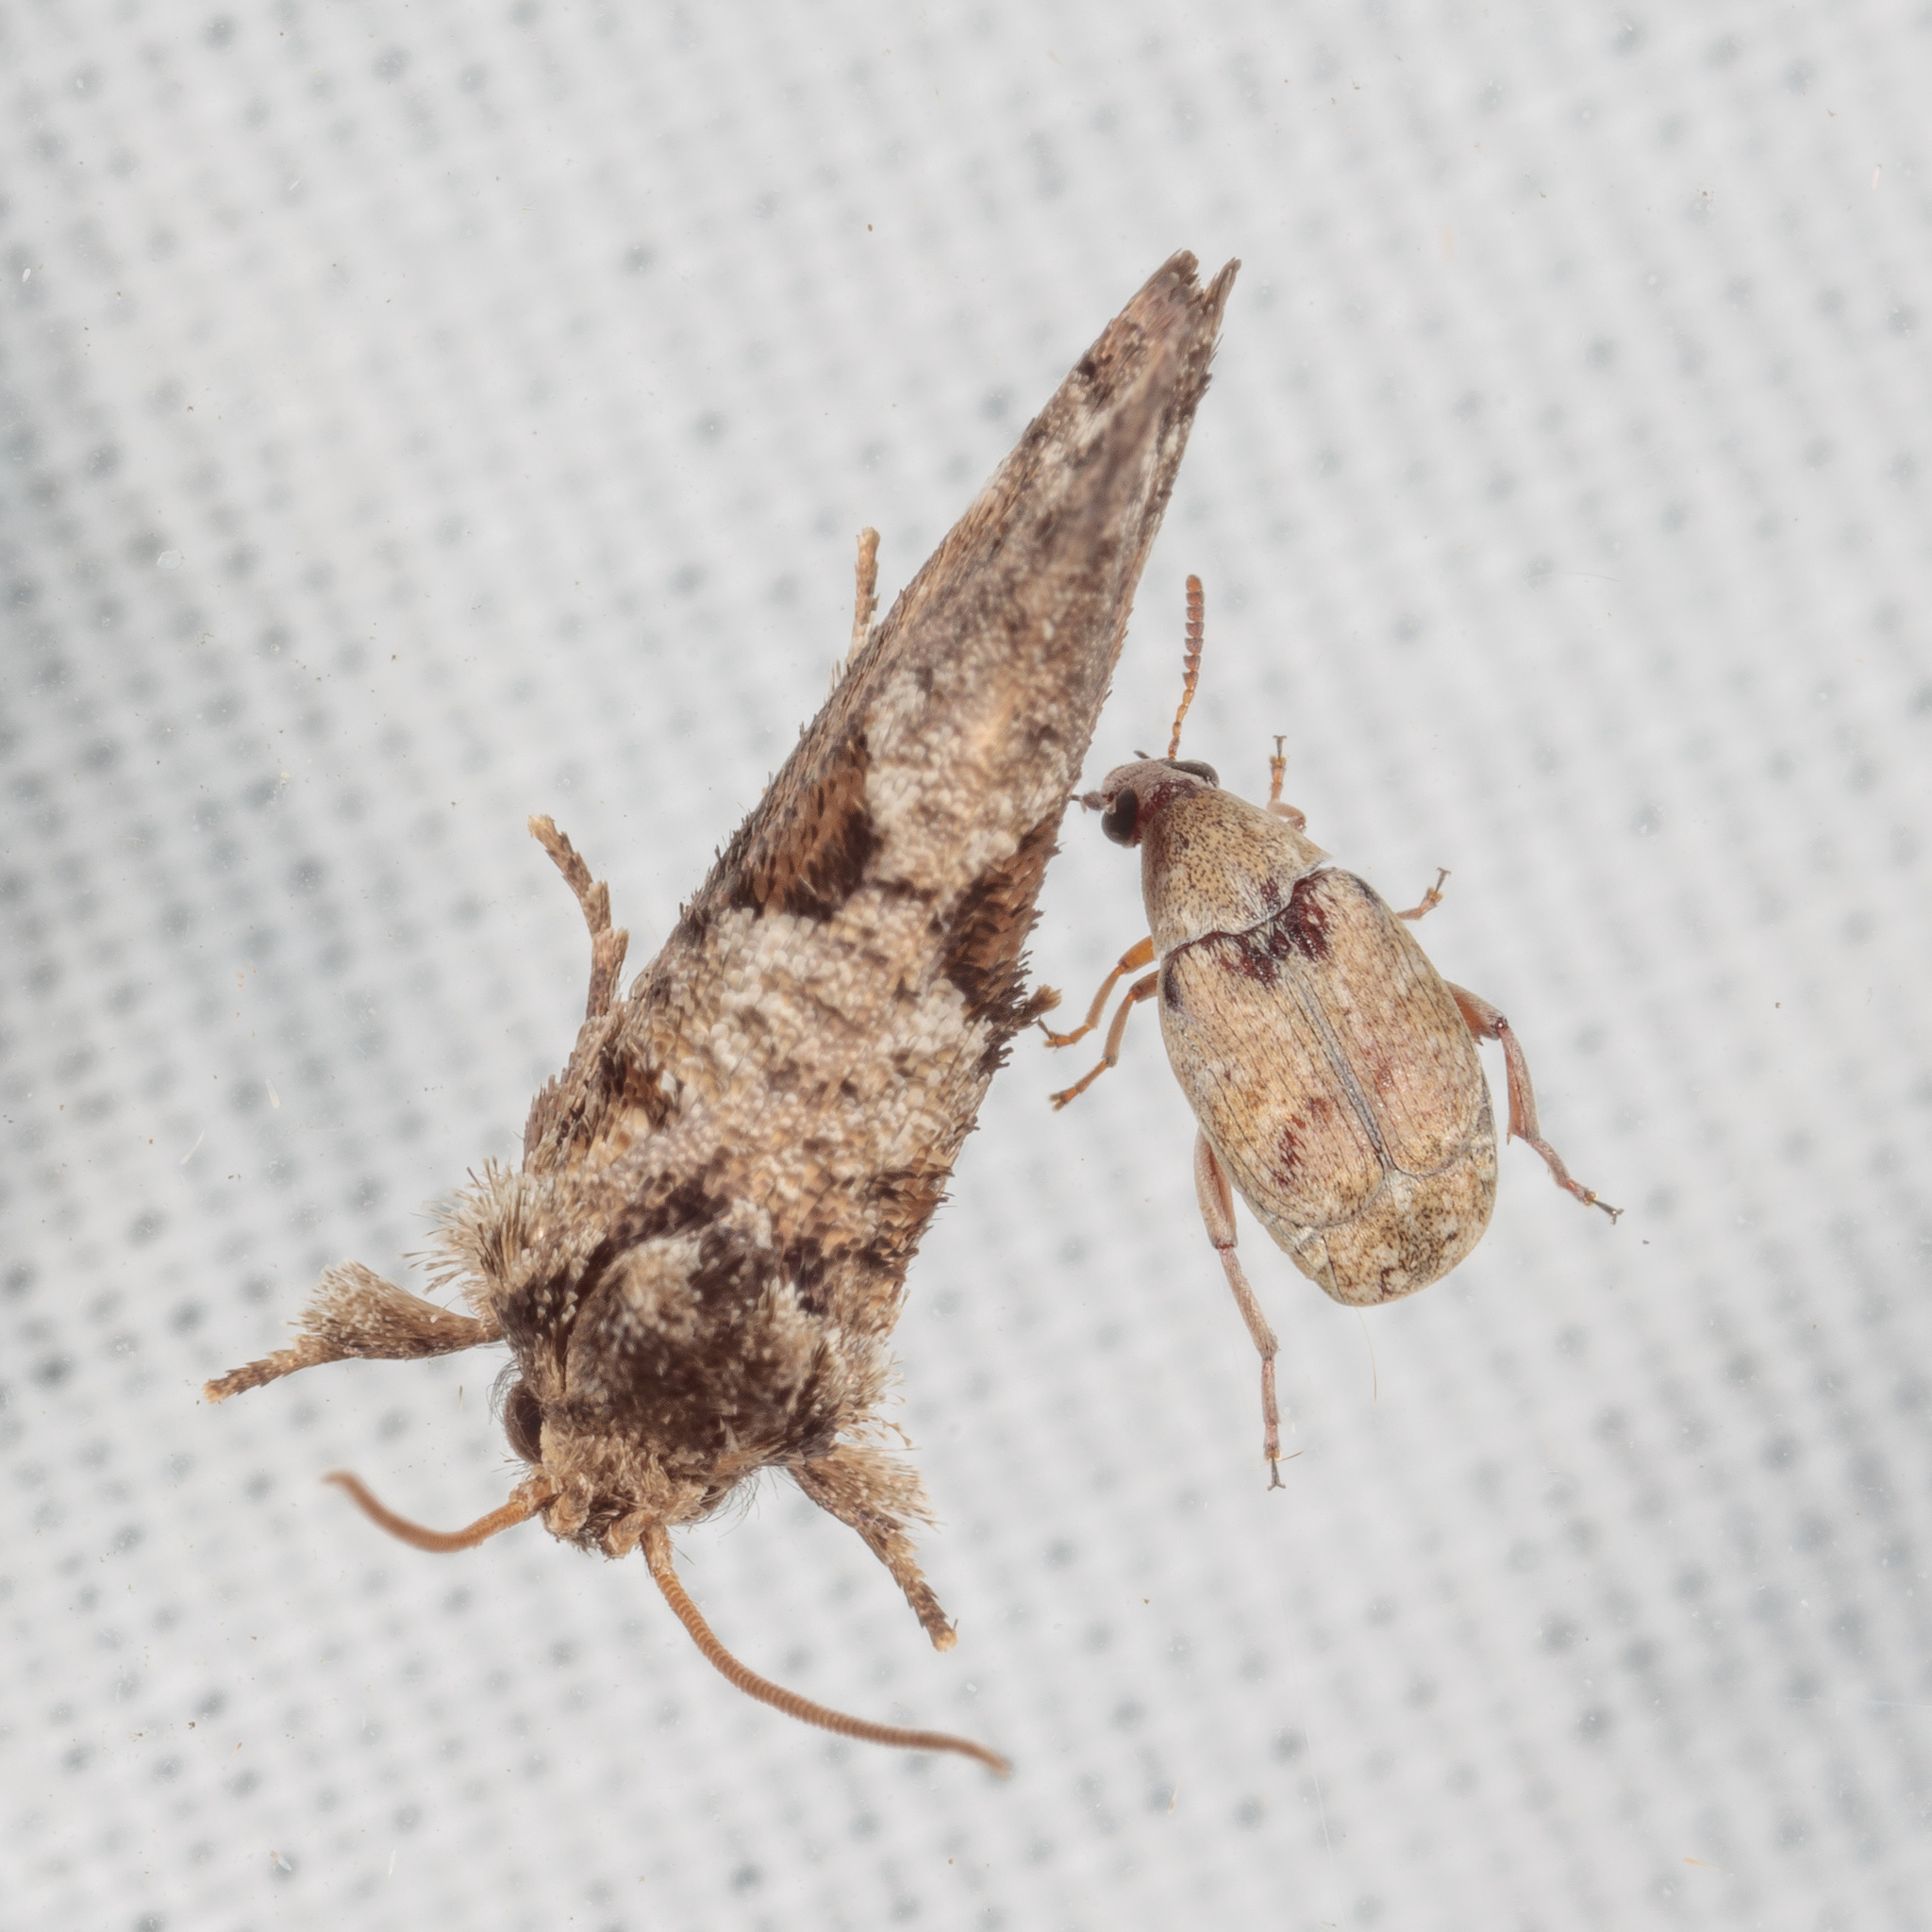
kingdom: Animalia
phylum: Arthropoda
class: Insecta
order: Lepidoptera
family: Tineidae
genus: Acrolophus
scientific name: Acrolophus piger
